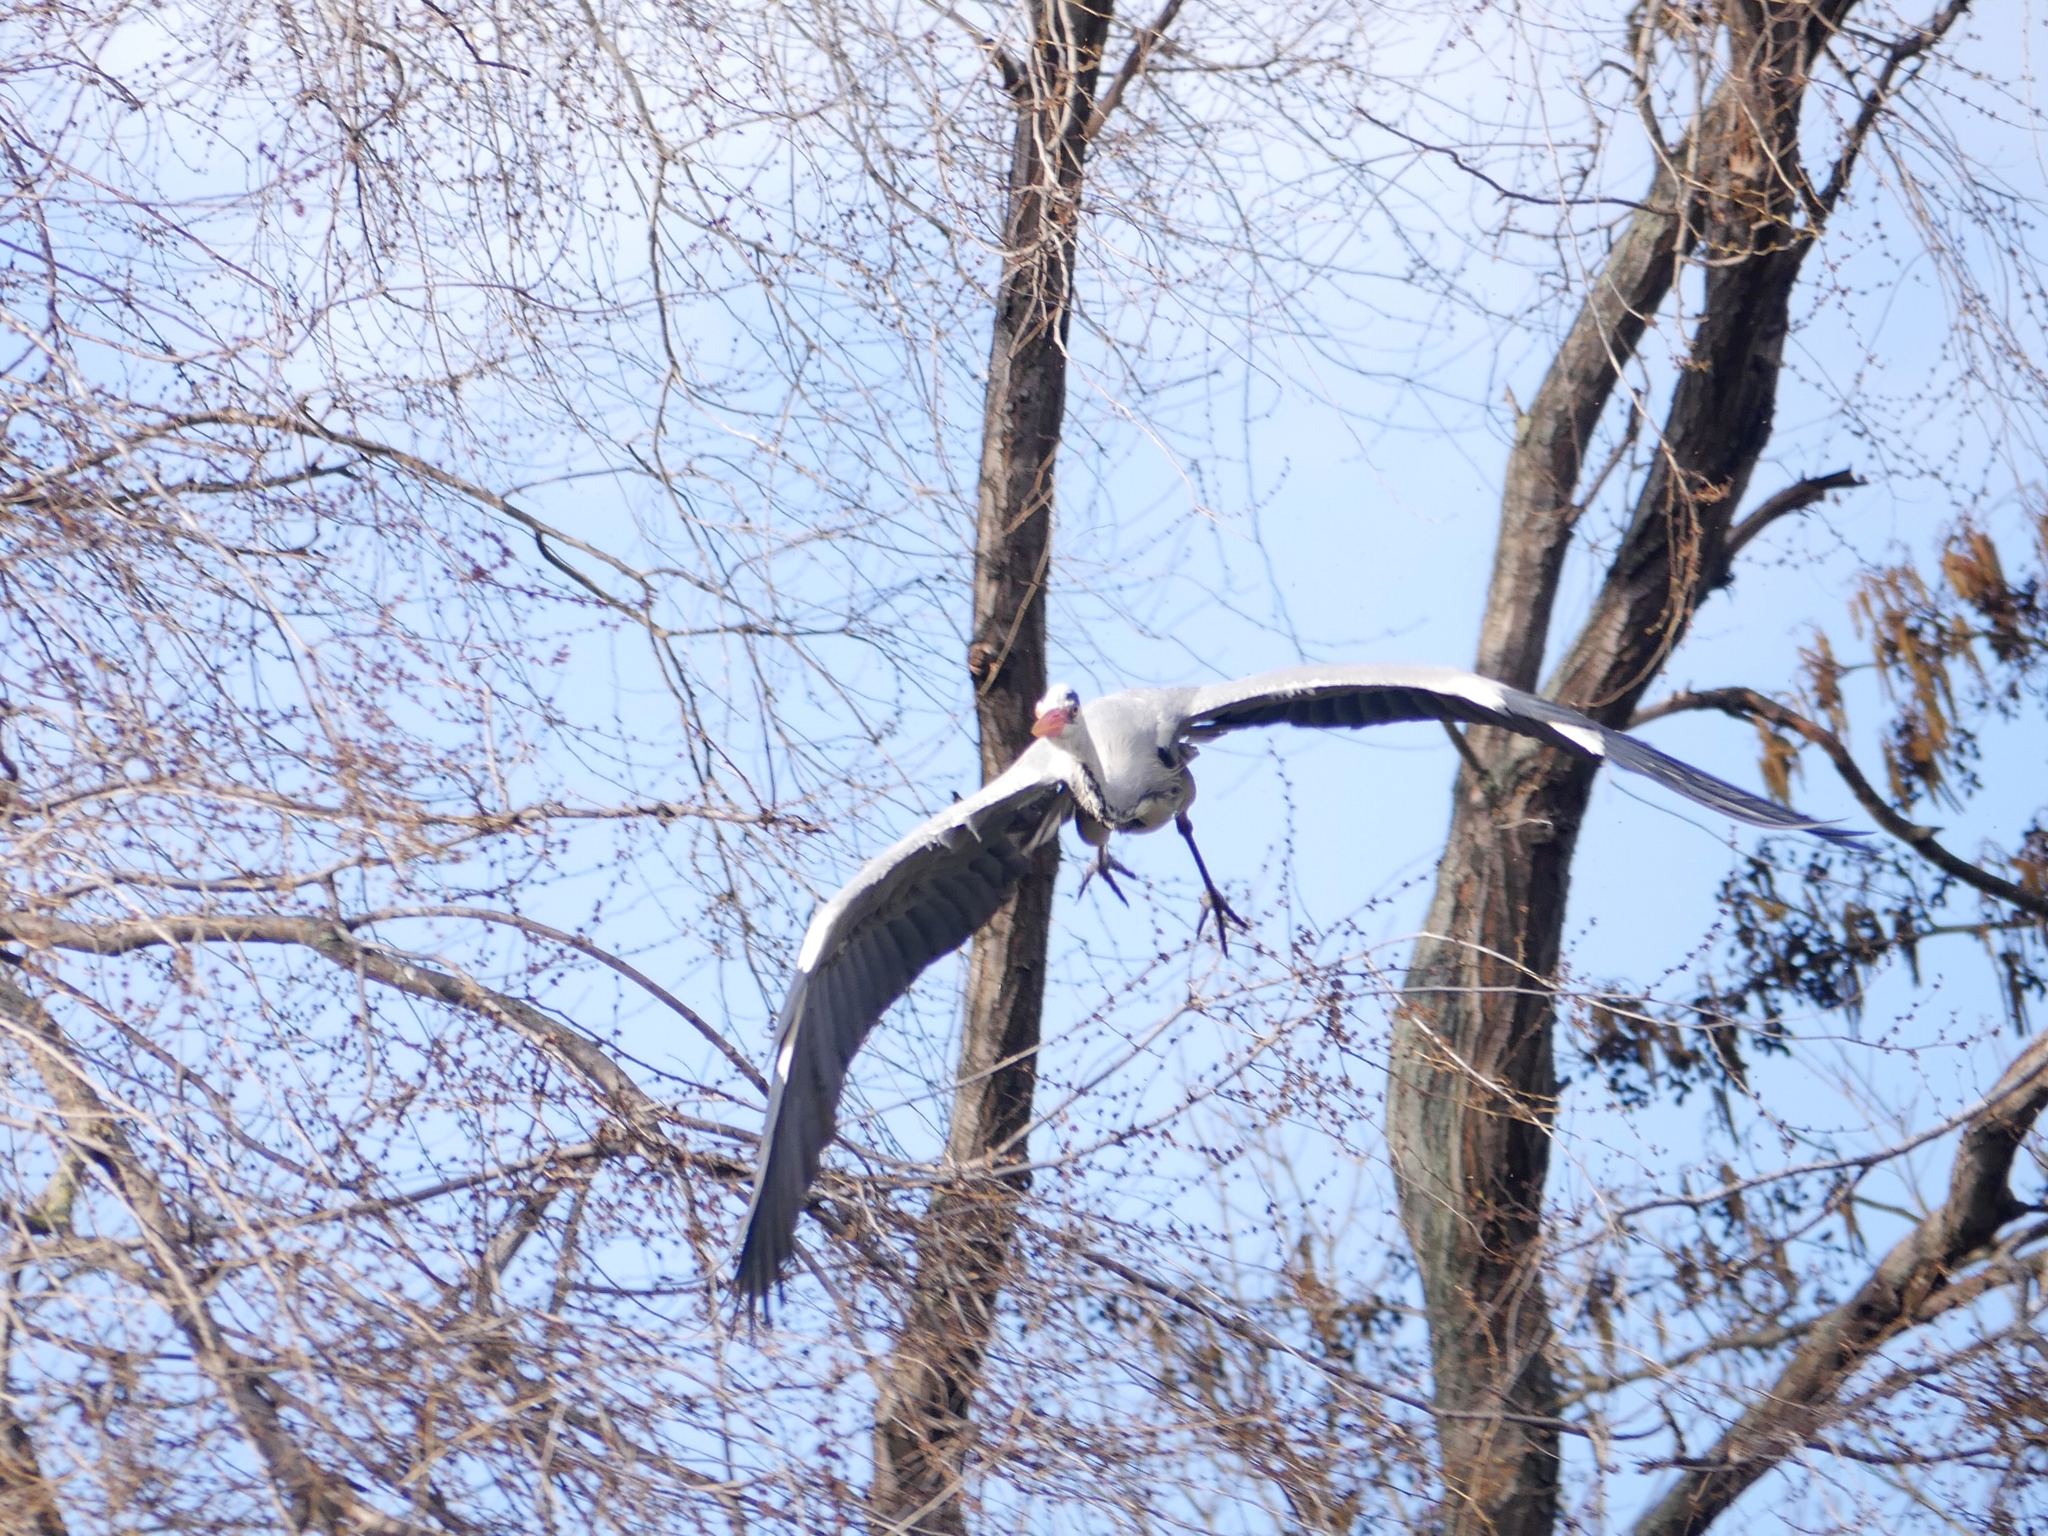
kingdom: Animalia
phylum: Chordata
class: Aves
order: Pelecaniformes
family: Ardeidae
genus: Ardea
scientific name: Ardea cinerea
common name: Grey heron
